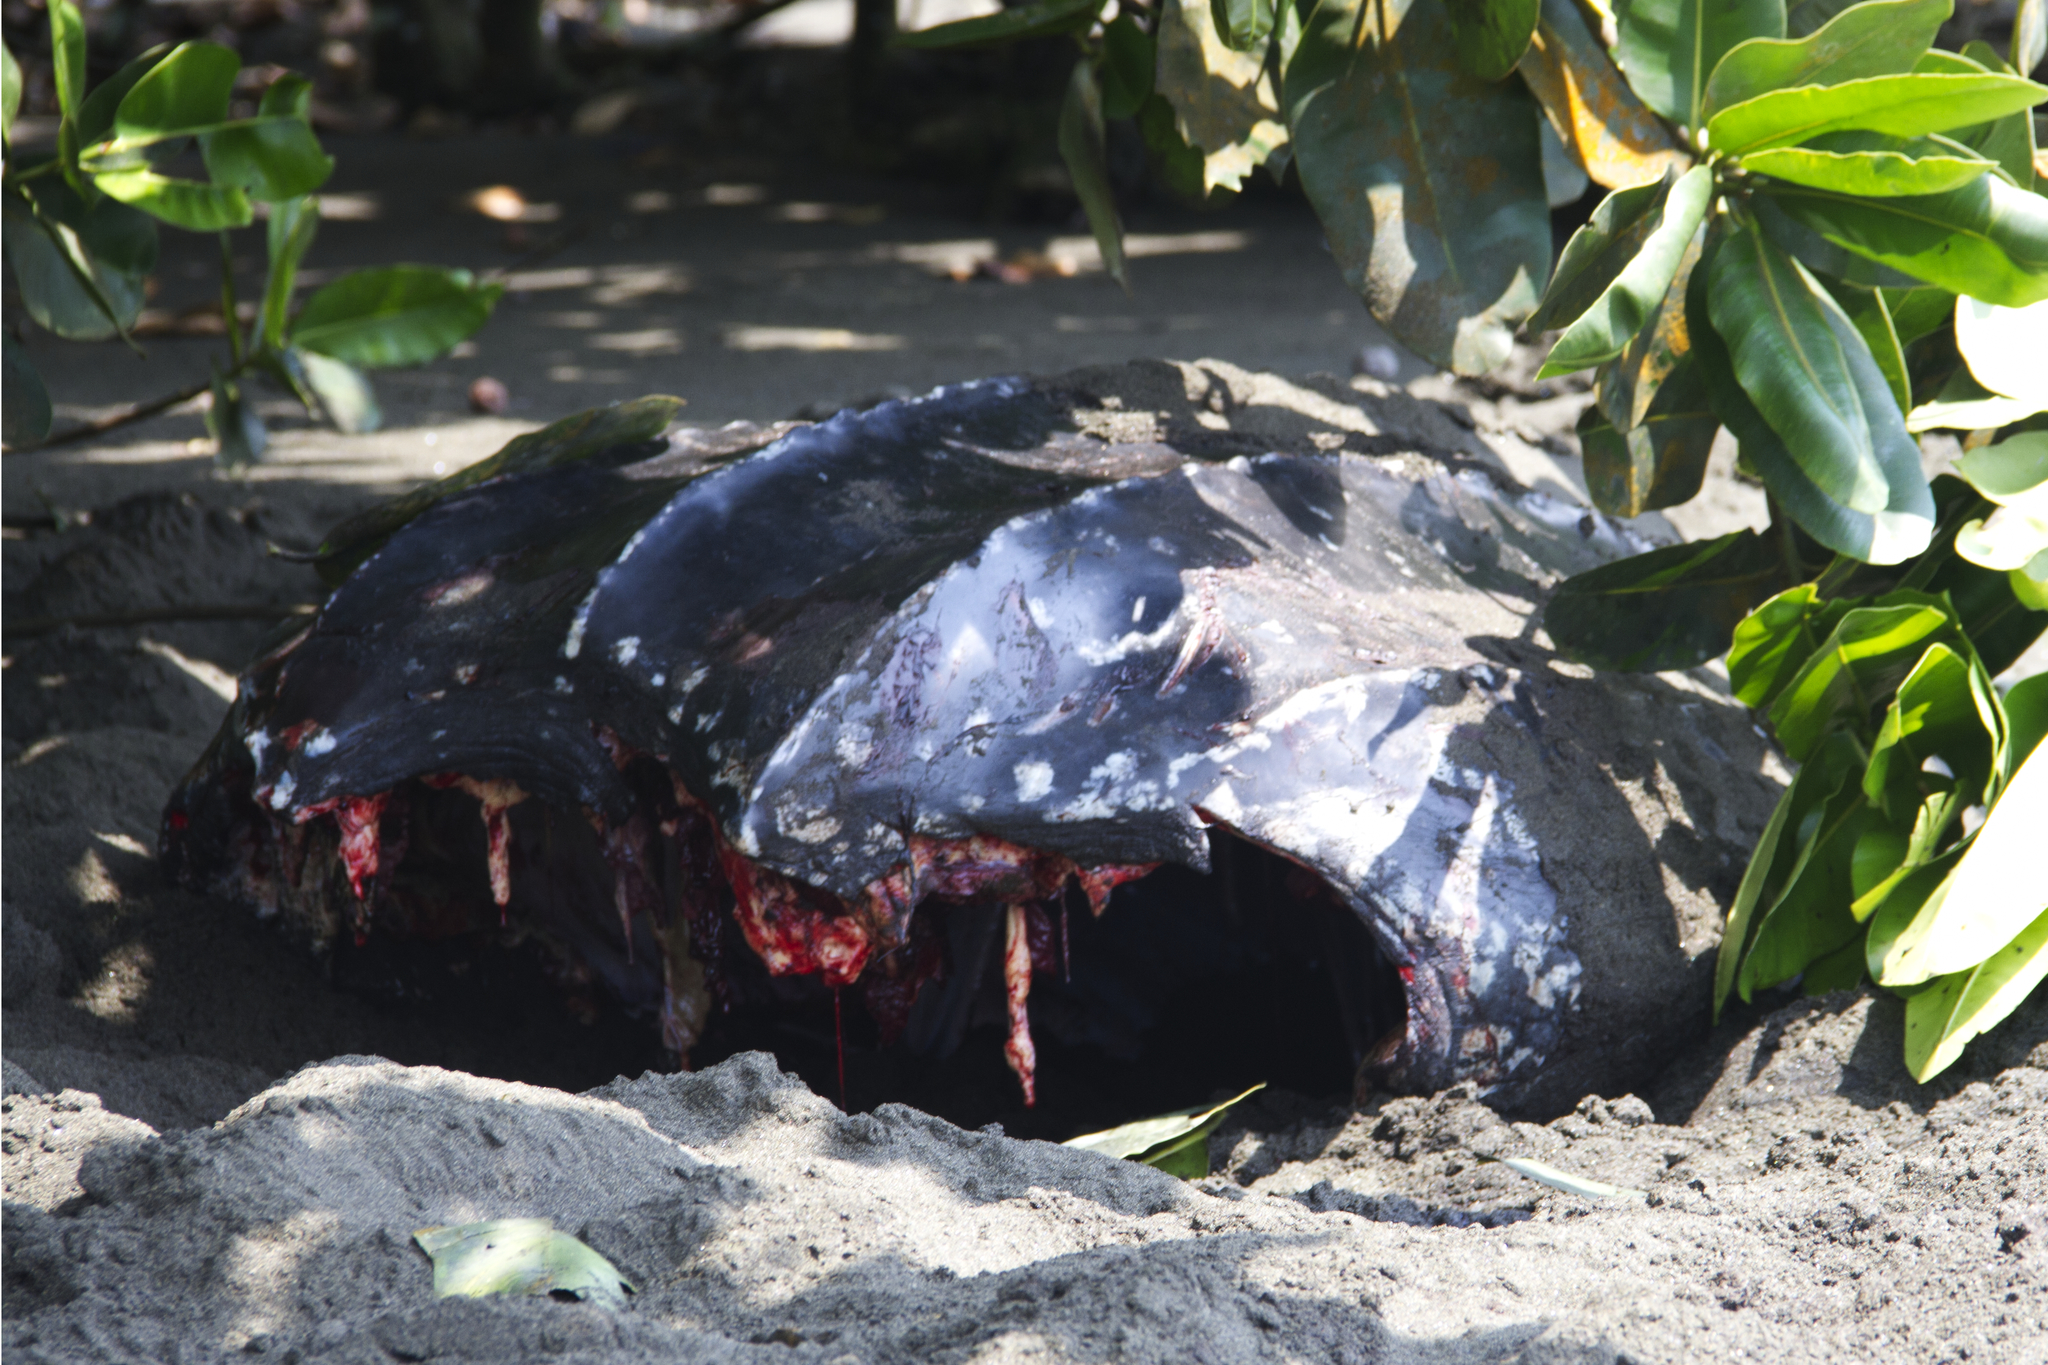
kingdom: Animalia
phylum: Chordata
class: Testudines
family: Dermochelyidae
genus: Dermochelys
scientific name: Dermochelys coriacea
